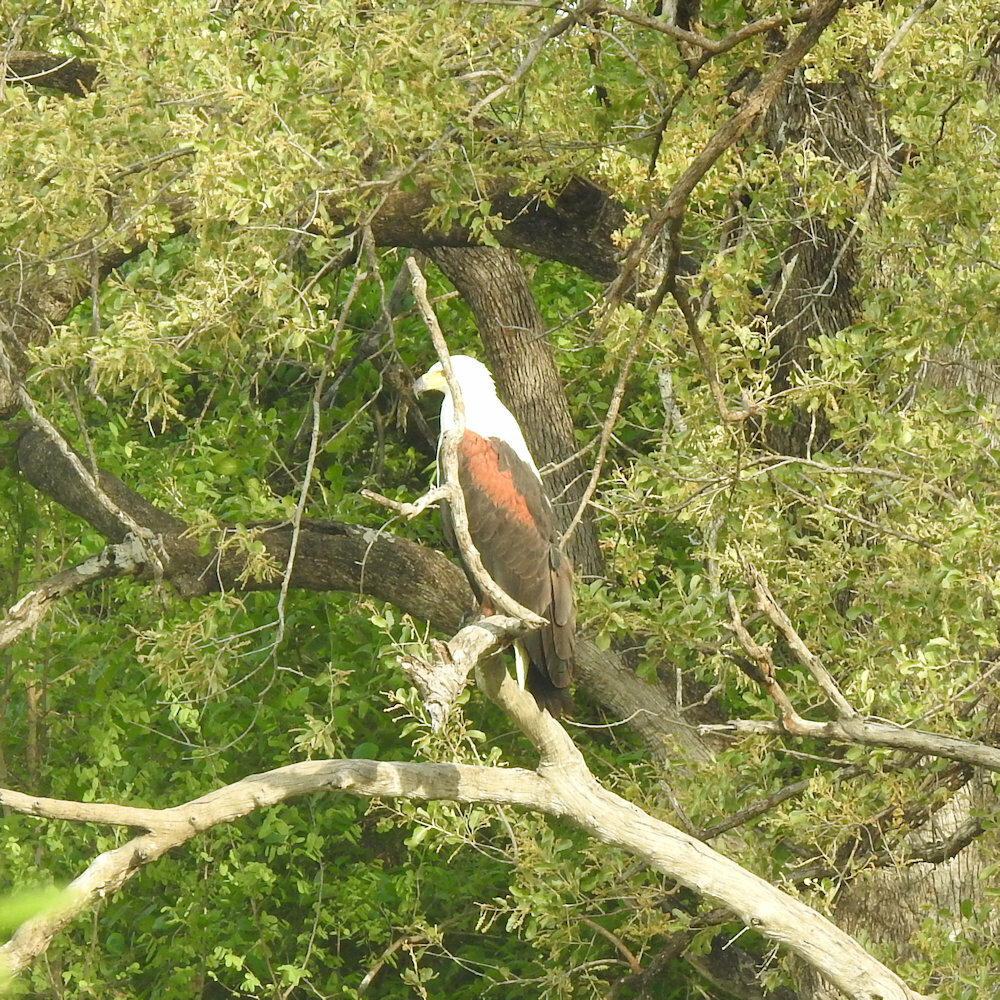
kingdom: Animalia
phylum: Chordata
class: Aves
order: Accipitriformes
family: Accipitridae
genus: Haliaeetus
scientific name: Haliaeetus vocifer
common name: African fish eagle
